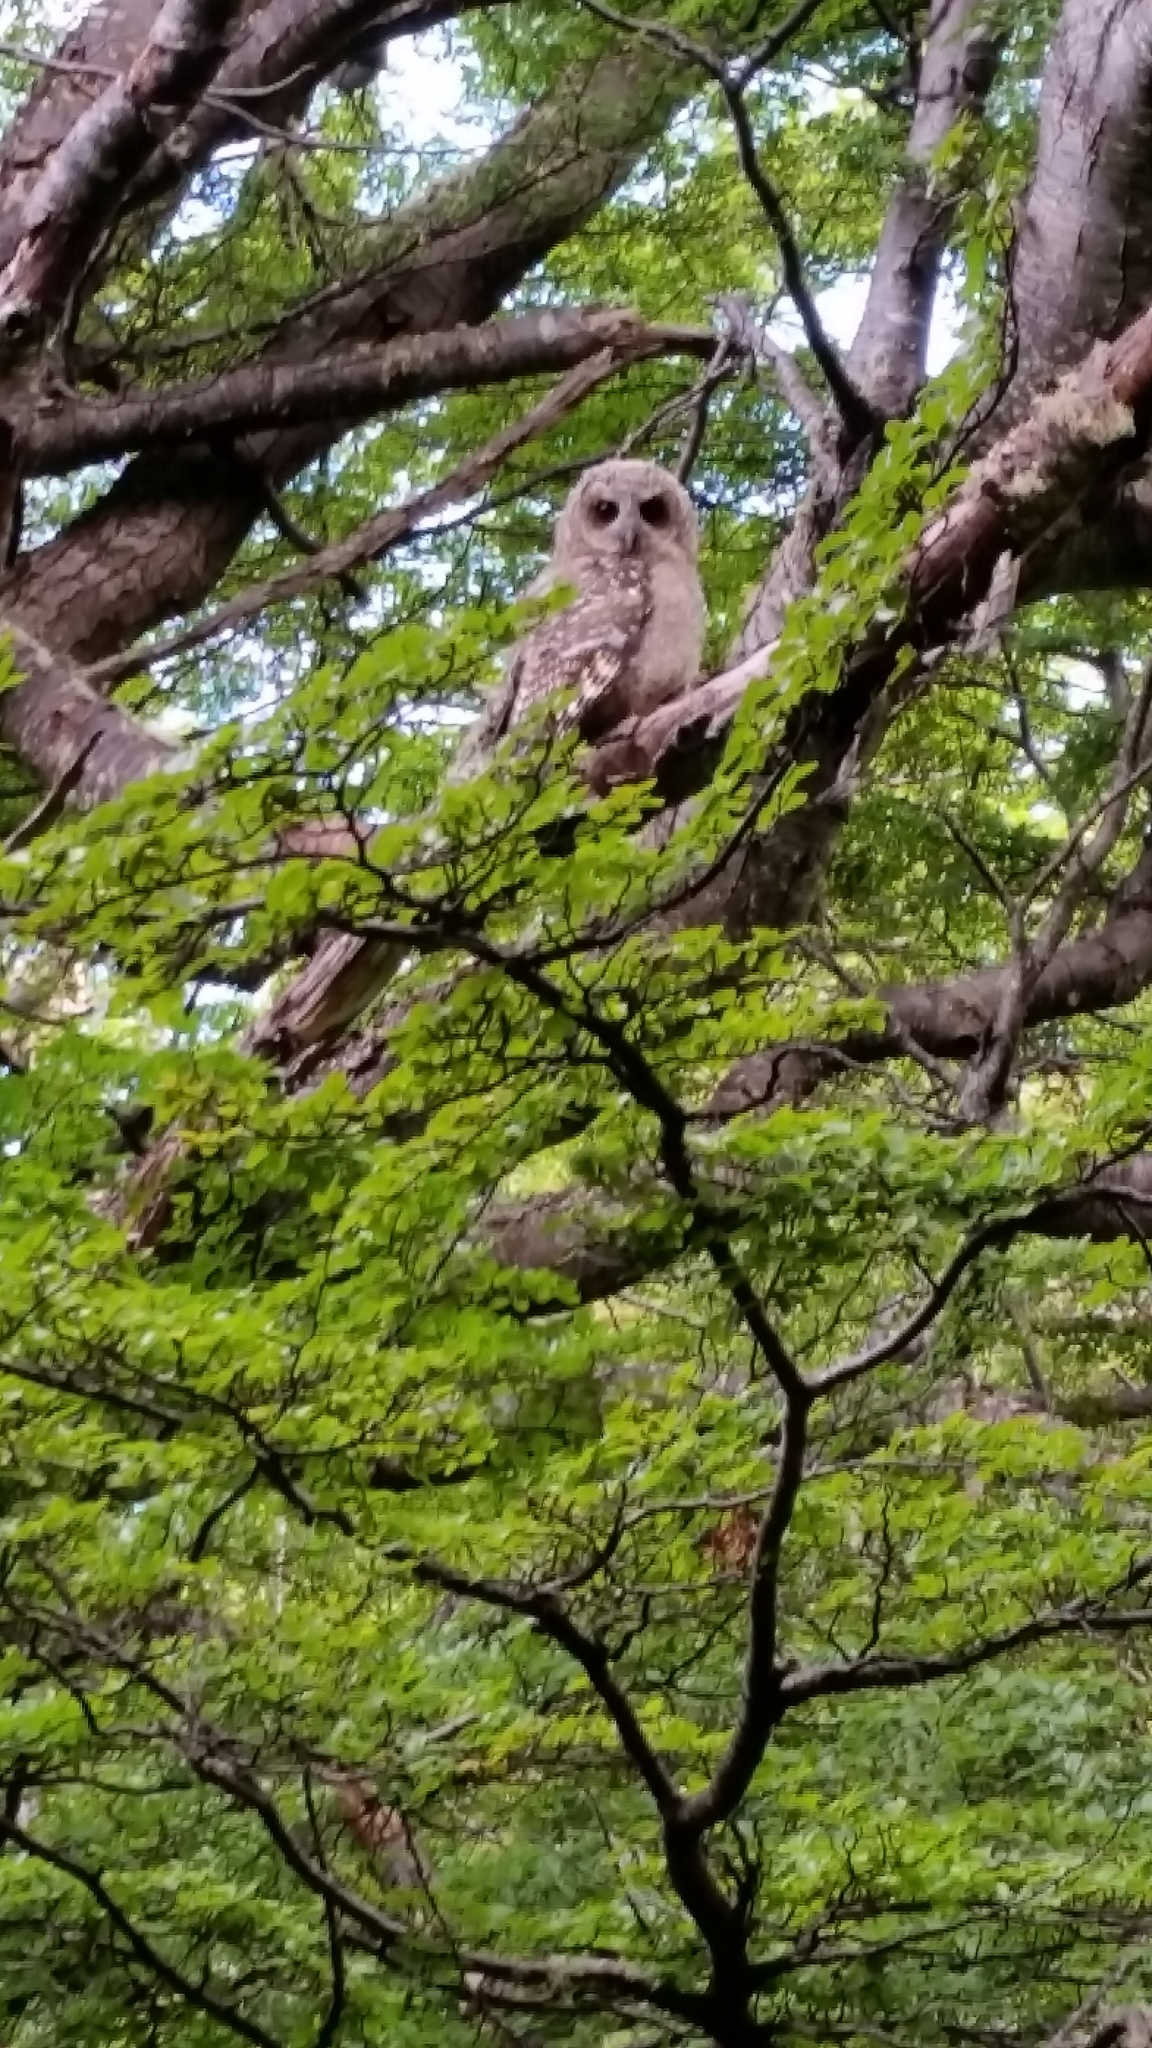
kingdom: Animalia
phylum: Chordata
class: Aves
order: Strigiformes
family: Strigidae
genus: Strix
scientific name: Strix rufipes
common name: Rufous-legged owl
